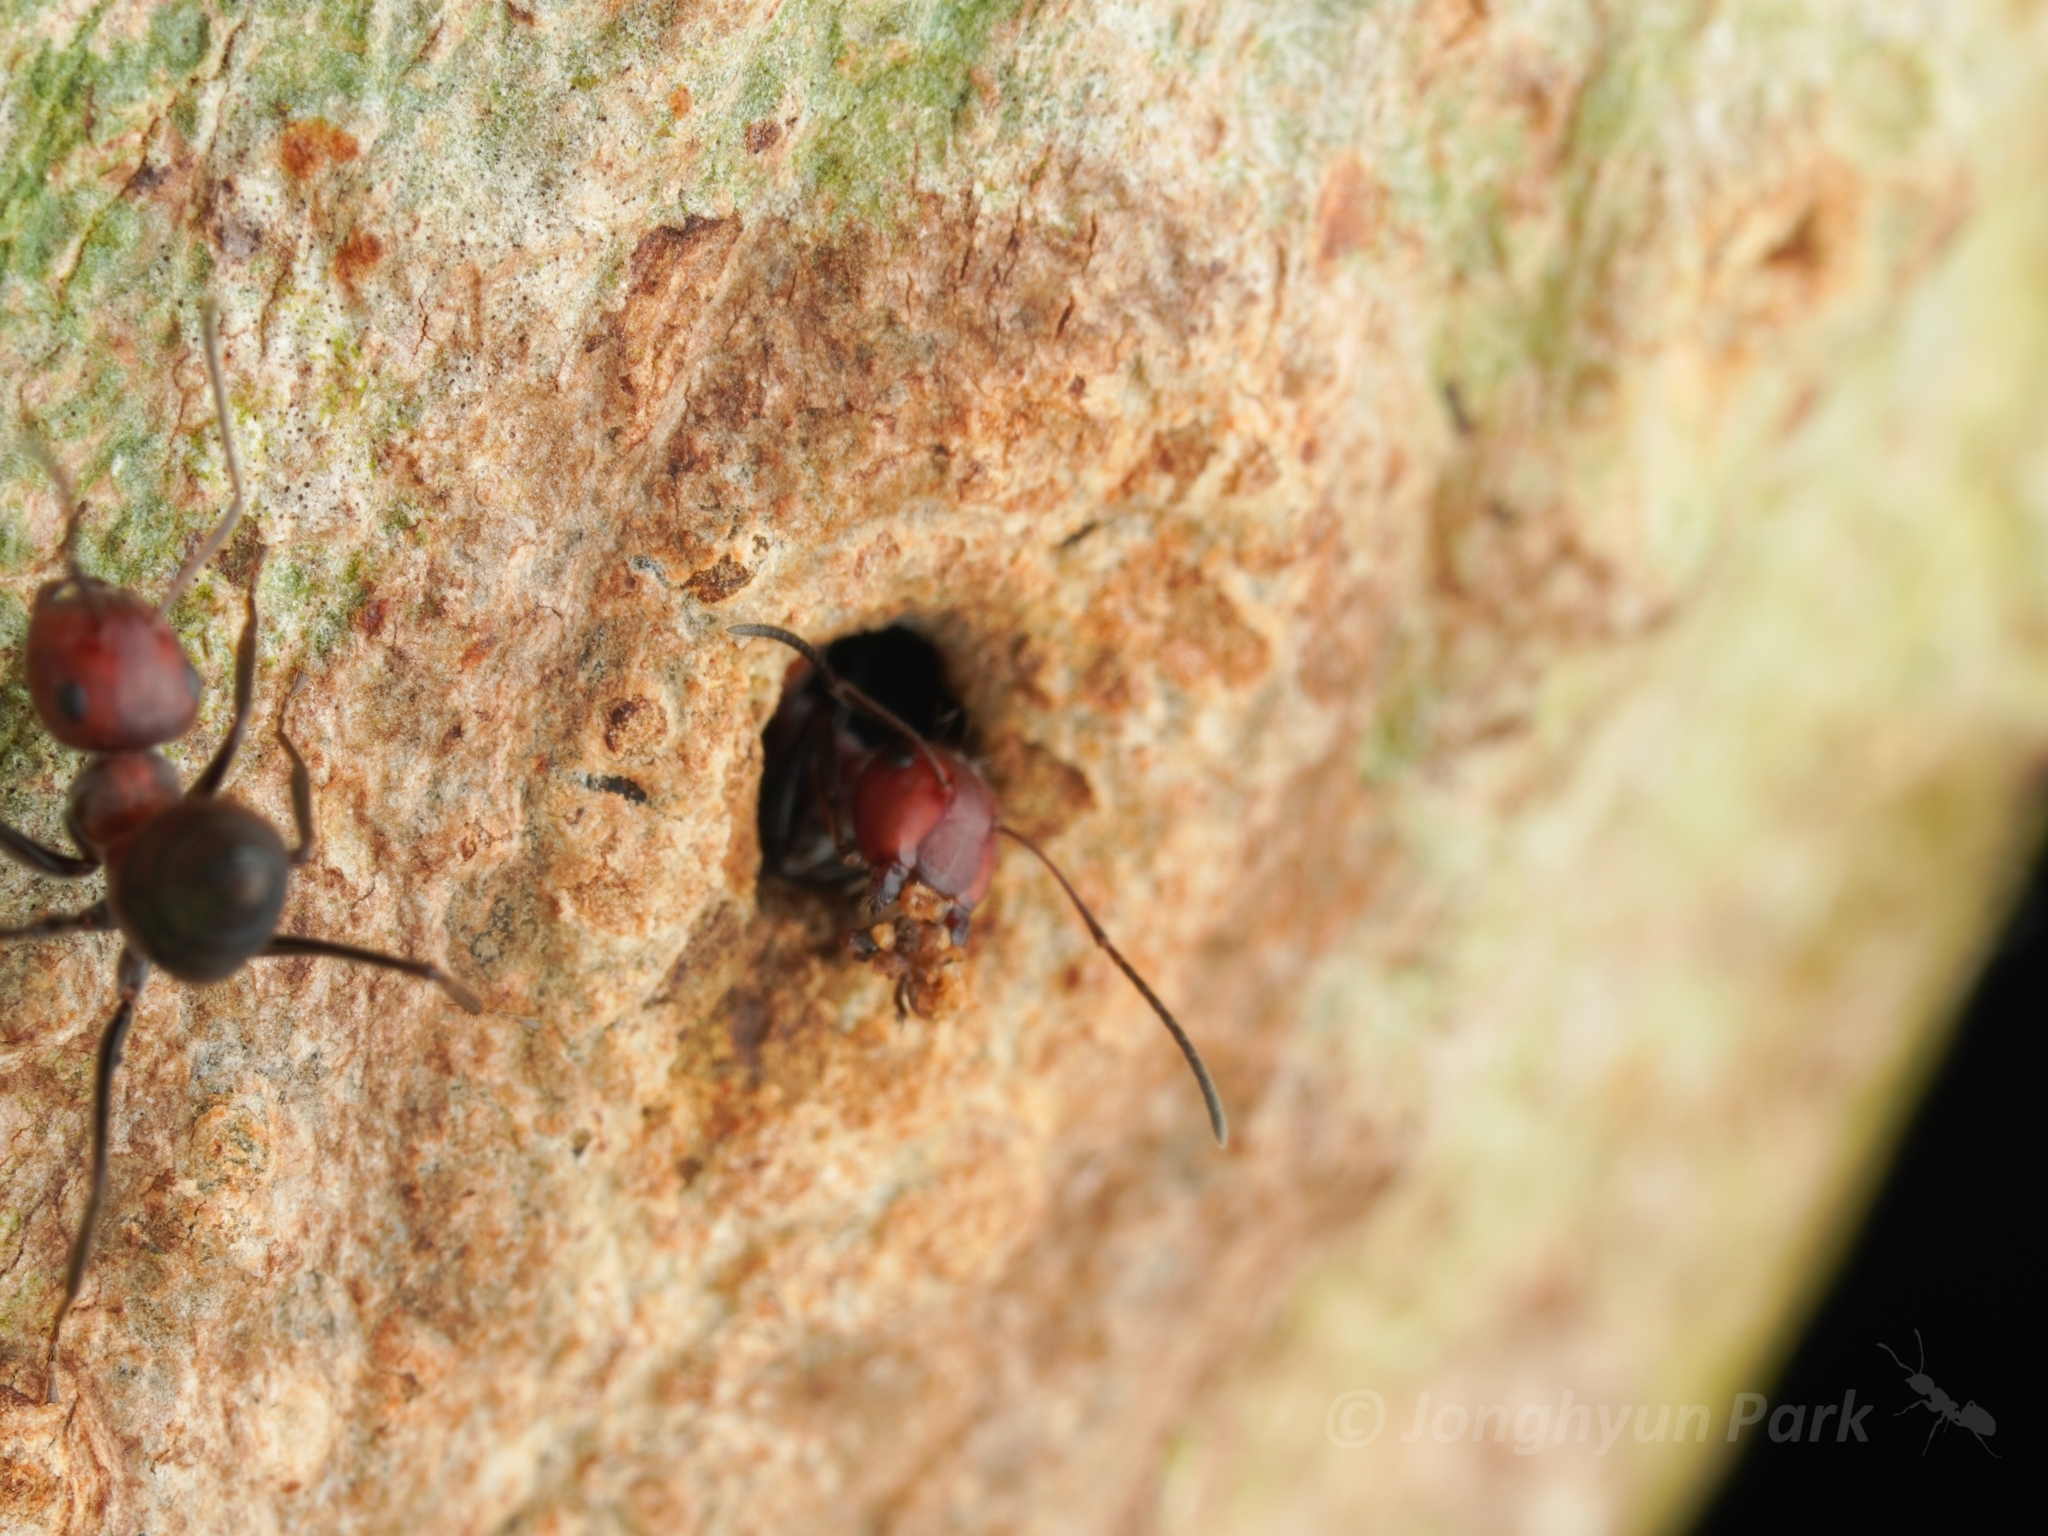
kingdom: Animalia
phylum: Arthropoda
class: Insecta
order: Hymenoptera
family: Formicidae
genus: Colobopsis
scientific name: Colobopsis explodens
